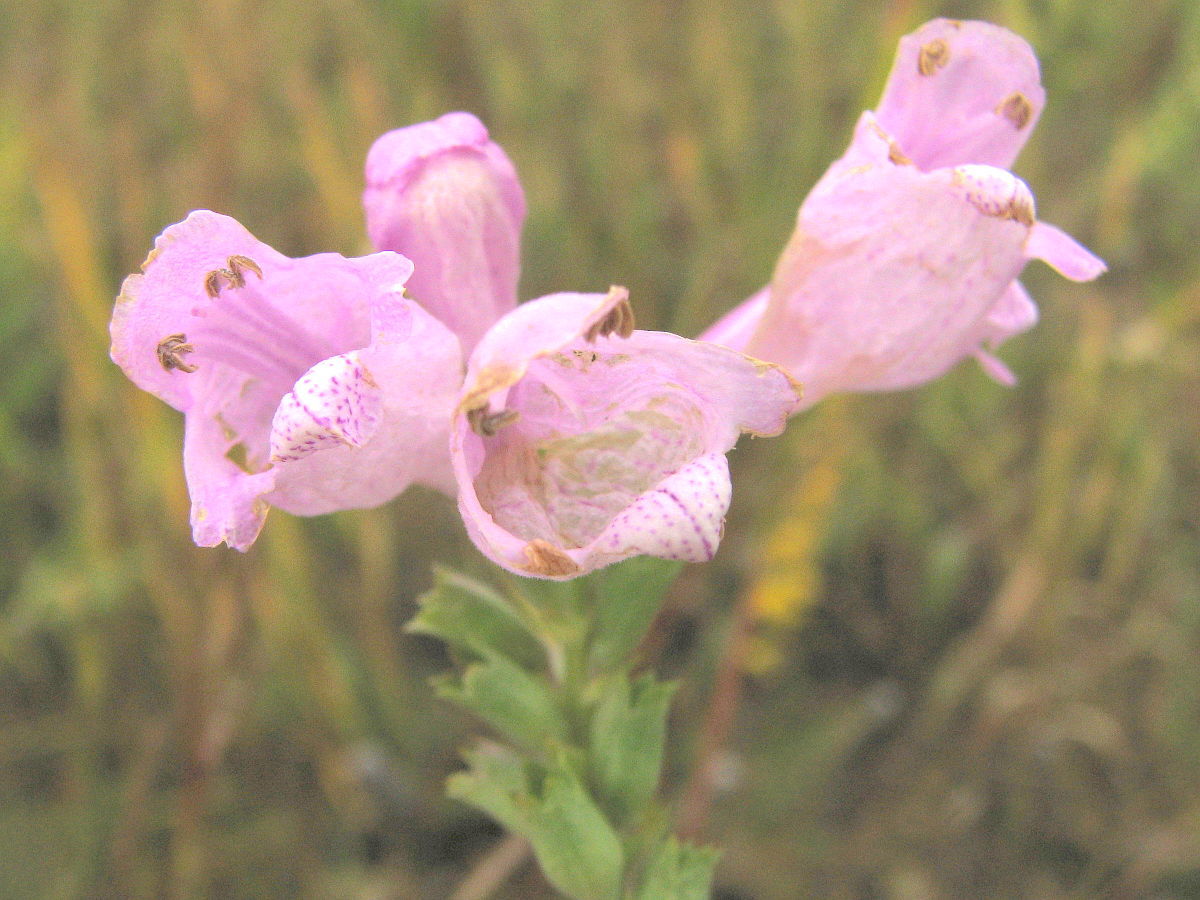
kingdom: Plantae
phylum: Tracheophyta
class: Magnoliopsida
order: Lamiales
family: Lamiaceae
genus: Physostegia
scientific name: Physostegia virginiana
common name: Obedient-plant
